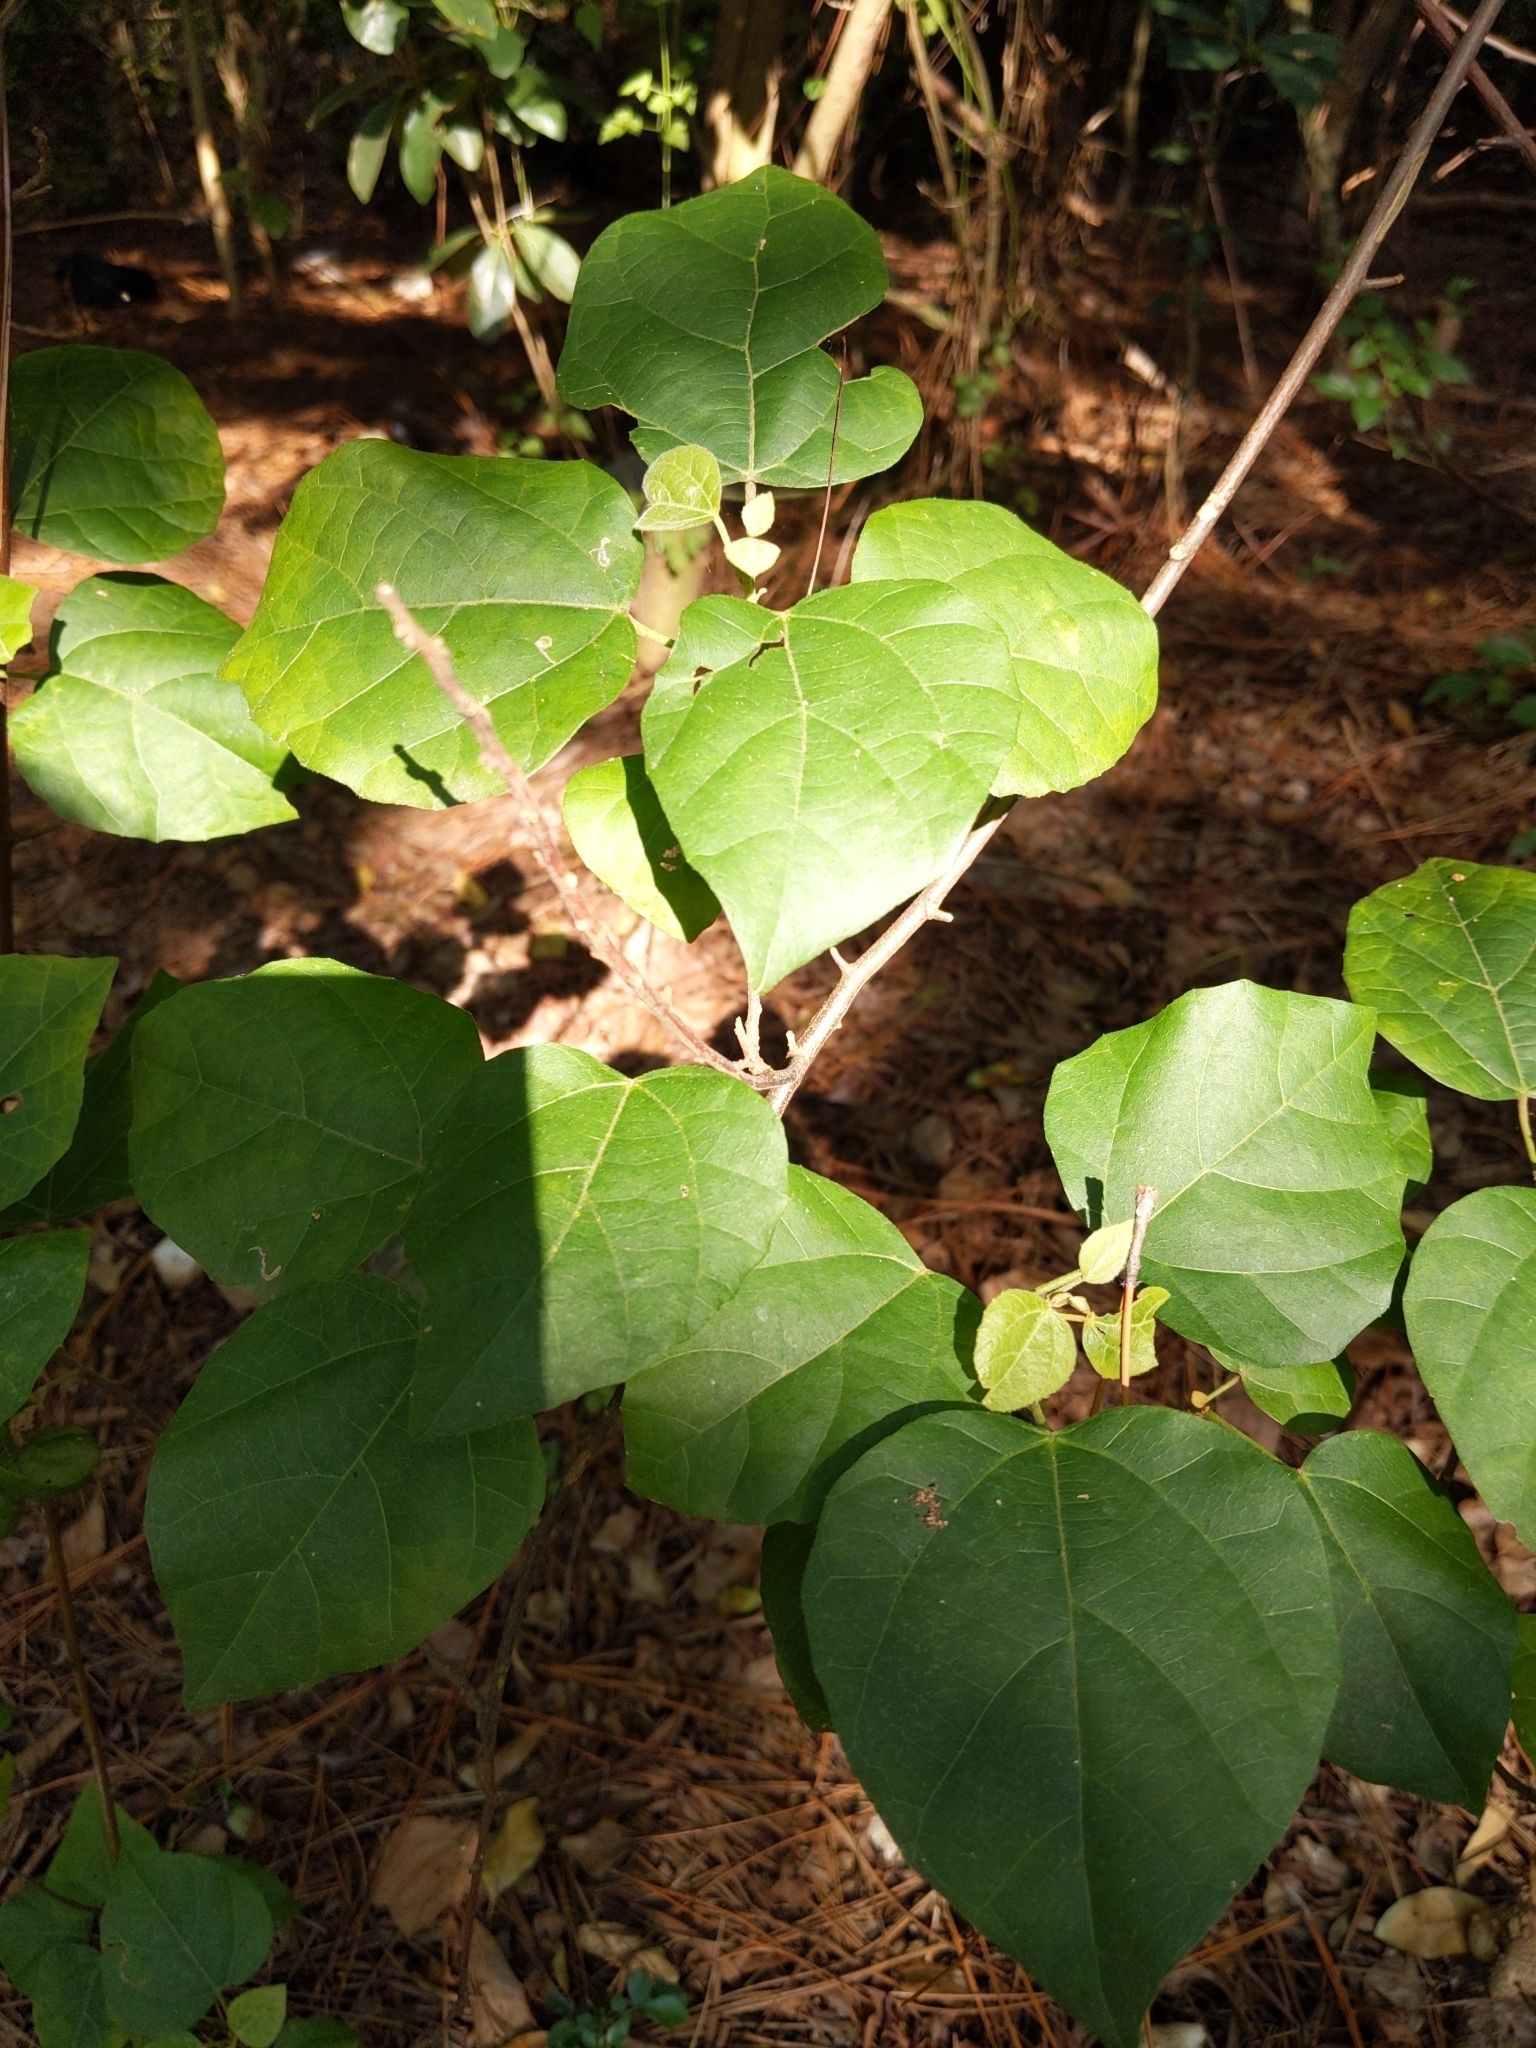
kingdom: Plantae
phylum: Tracheophyta
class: Magnoliopsida
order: Malpighiales
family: Euphorbiaceae
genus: Mallotus
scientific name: Mallotus repandus
